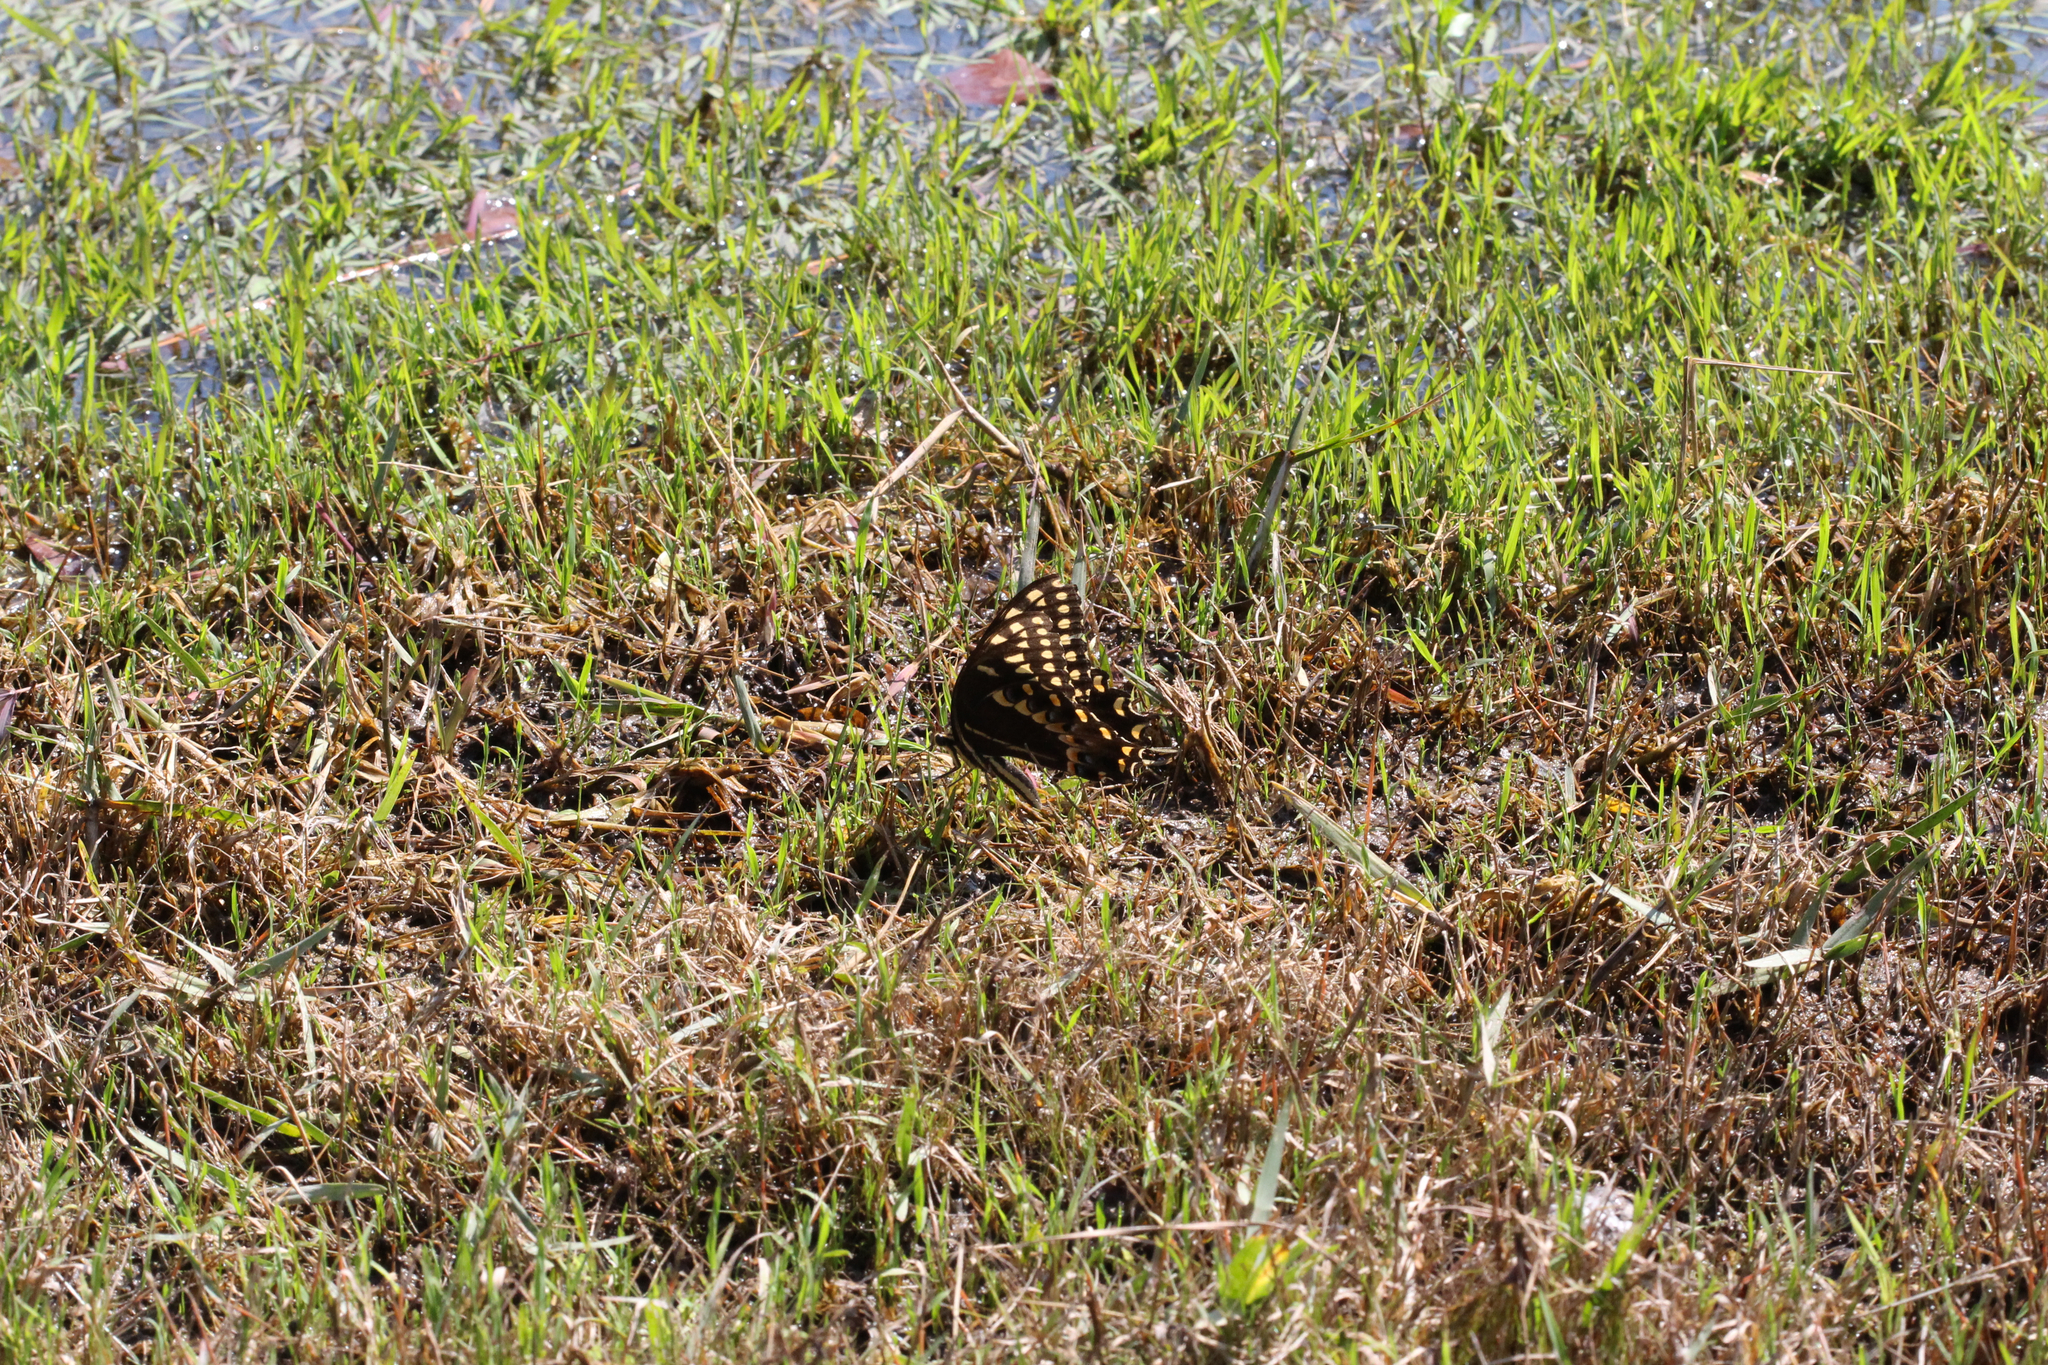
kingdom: Animalia
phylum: Arthropoda
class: Insecta
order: Lepidoptera
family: Papilionidae
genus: Papilio
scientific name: Papilio palamedes
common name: Palamedes swallowtail
